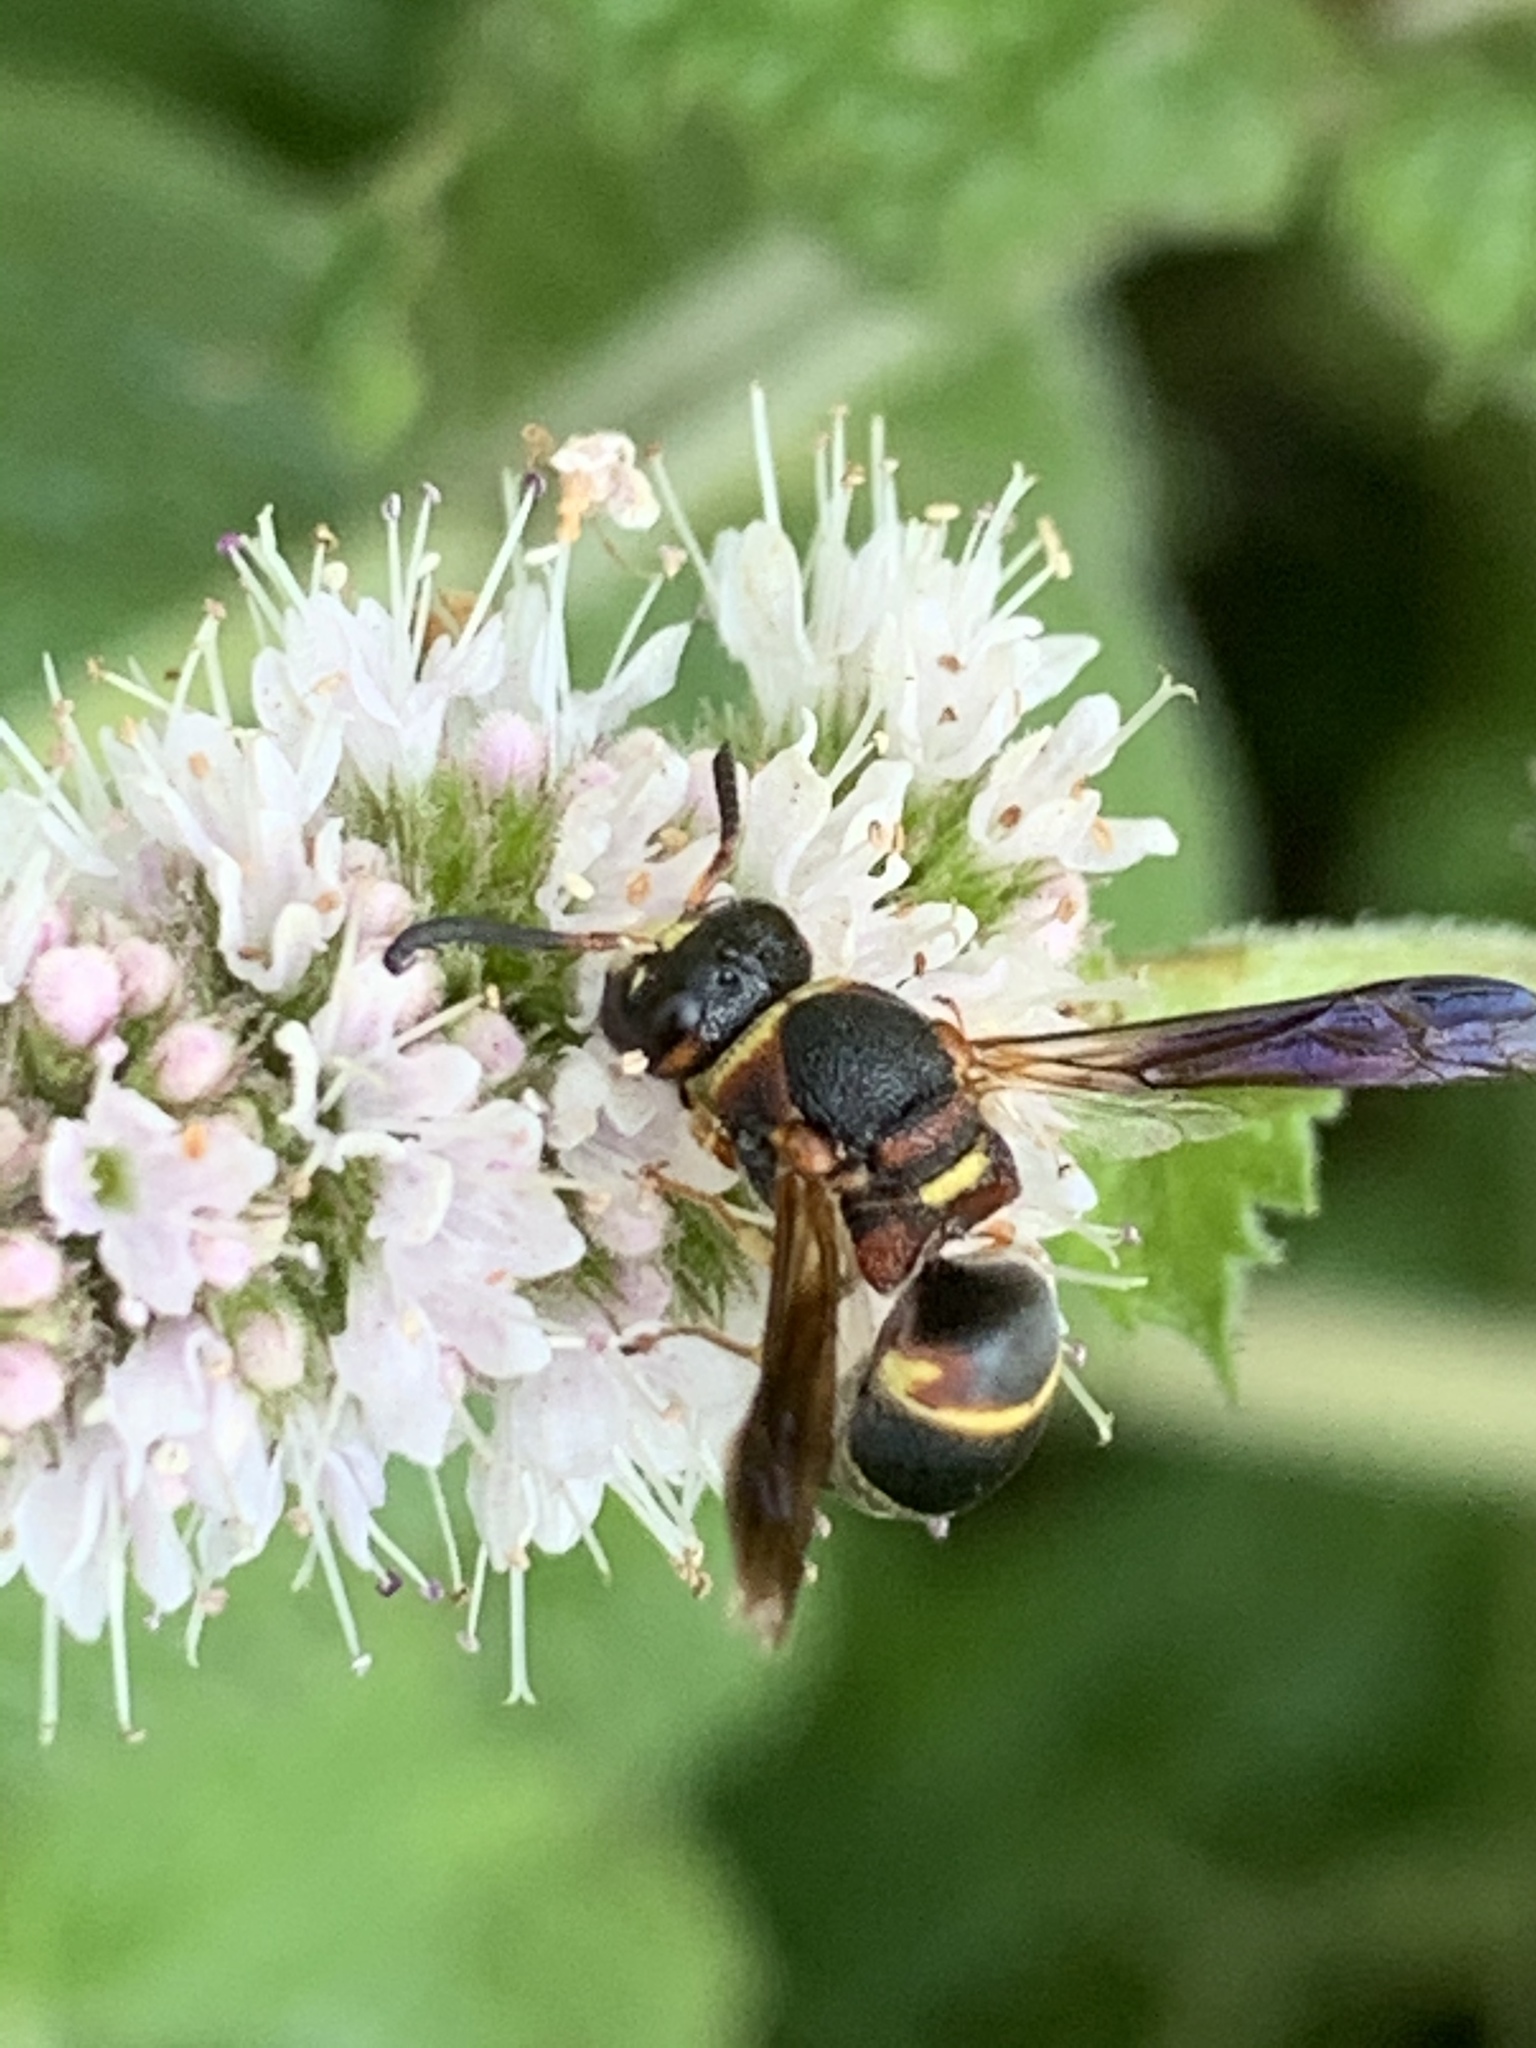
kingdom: Animalia
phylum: Arthropoda
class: Insecta
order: Hymenoptera
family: Eumenidae
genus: Euodynerus
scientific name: Euodynerus hidalgo
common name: Wasp
